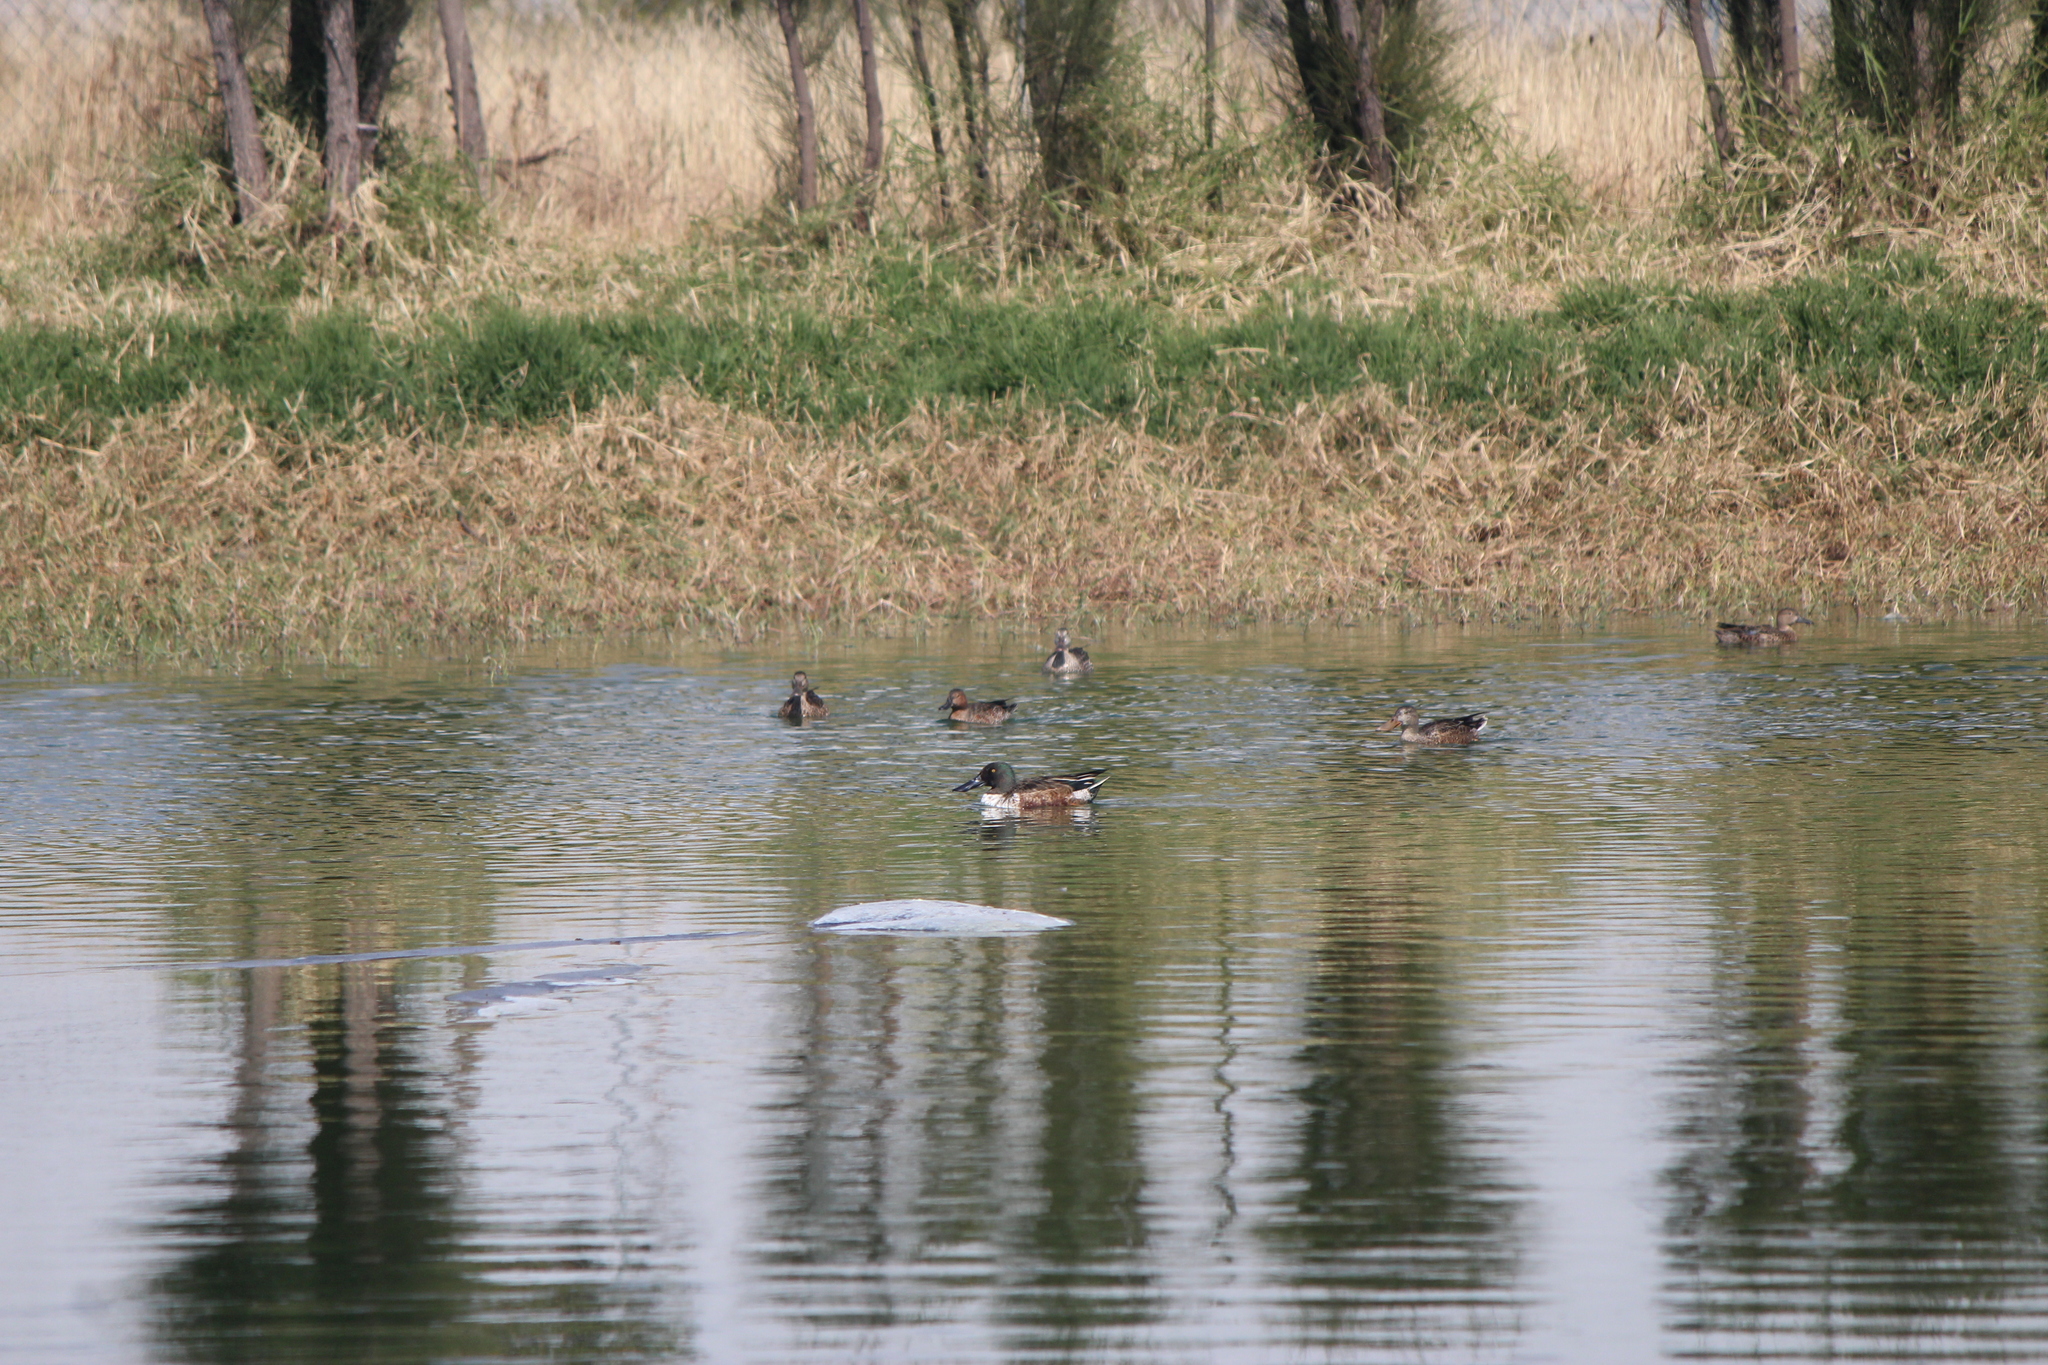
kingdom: Animalia
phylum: Chordata
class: Aves
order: Anseriformes
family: Anatidae
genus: Spatula
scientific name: Spatula clypeata
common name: Northern shoveler
